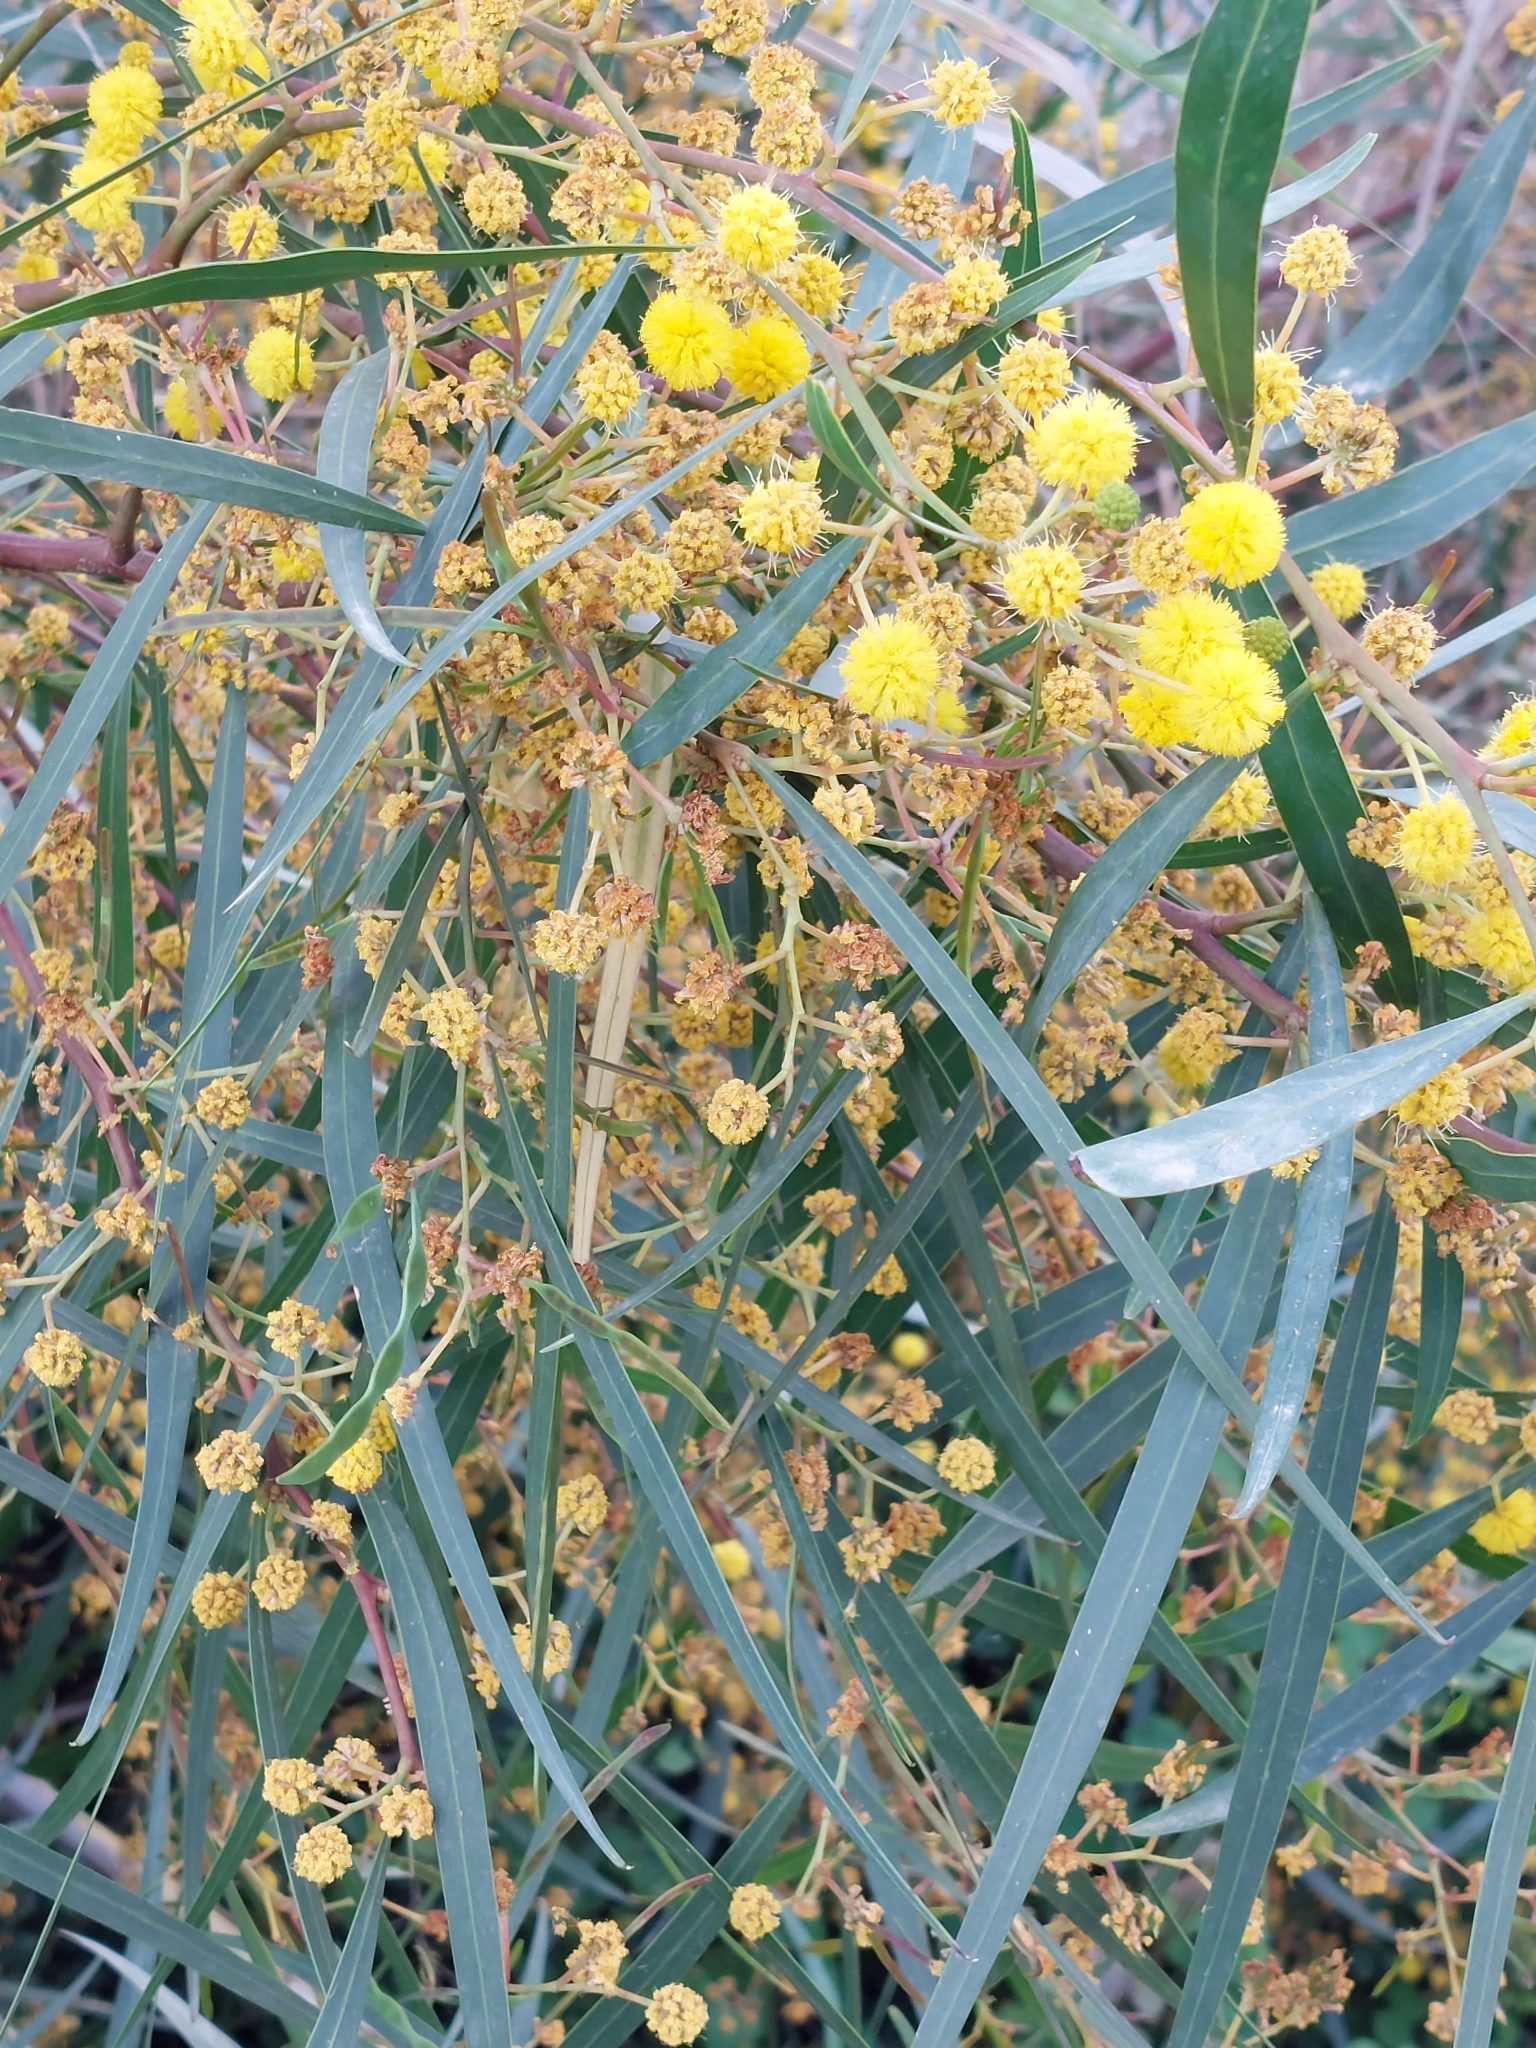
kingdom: Plantae
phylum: Tracheophyta
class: Magnoliopsida
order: Fabales
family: Fabaceae
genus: Acacia
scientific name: Acacia saligna
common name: Orange wattle
